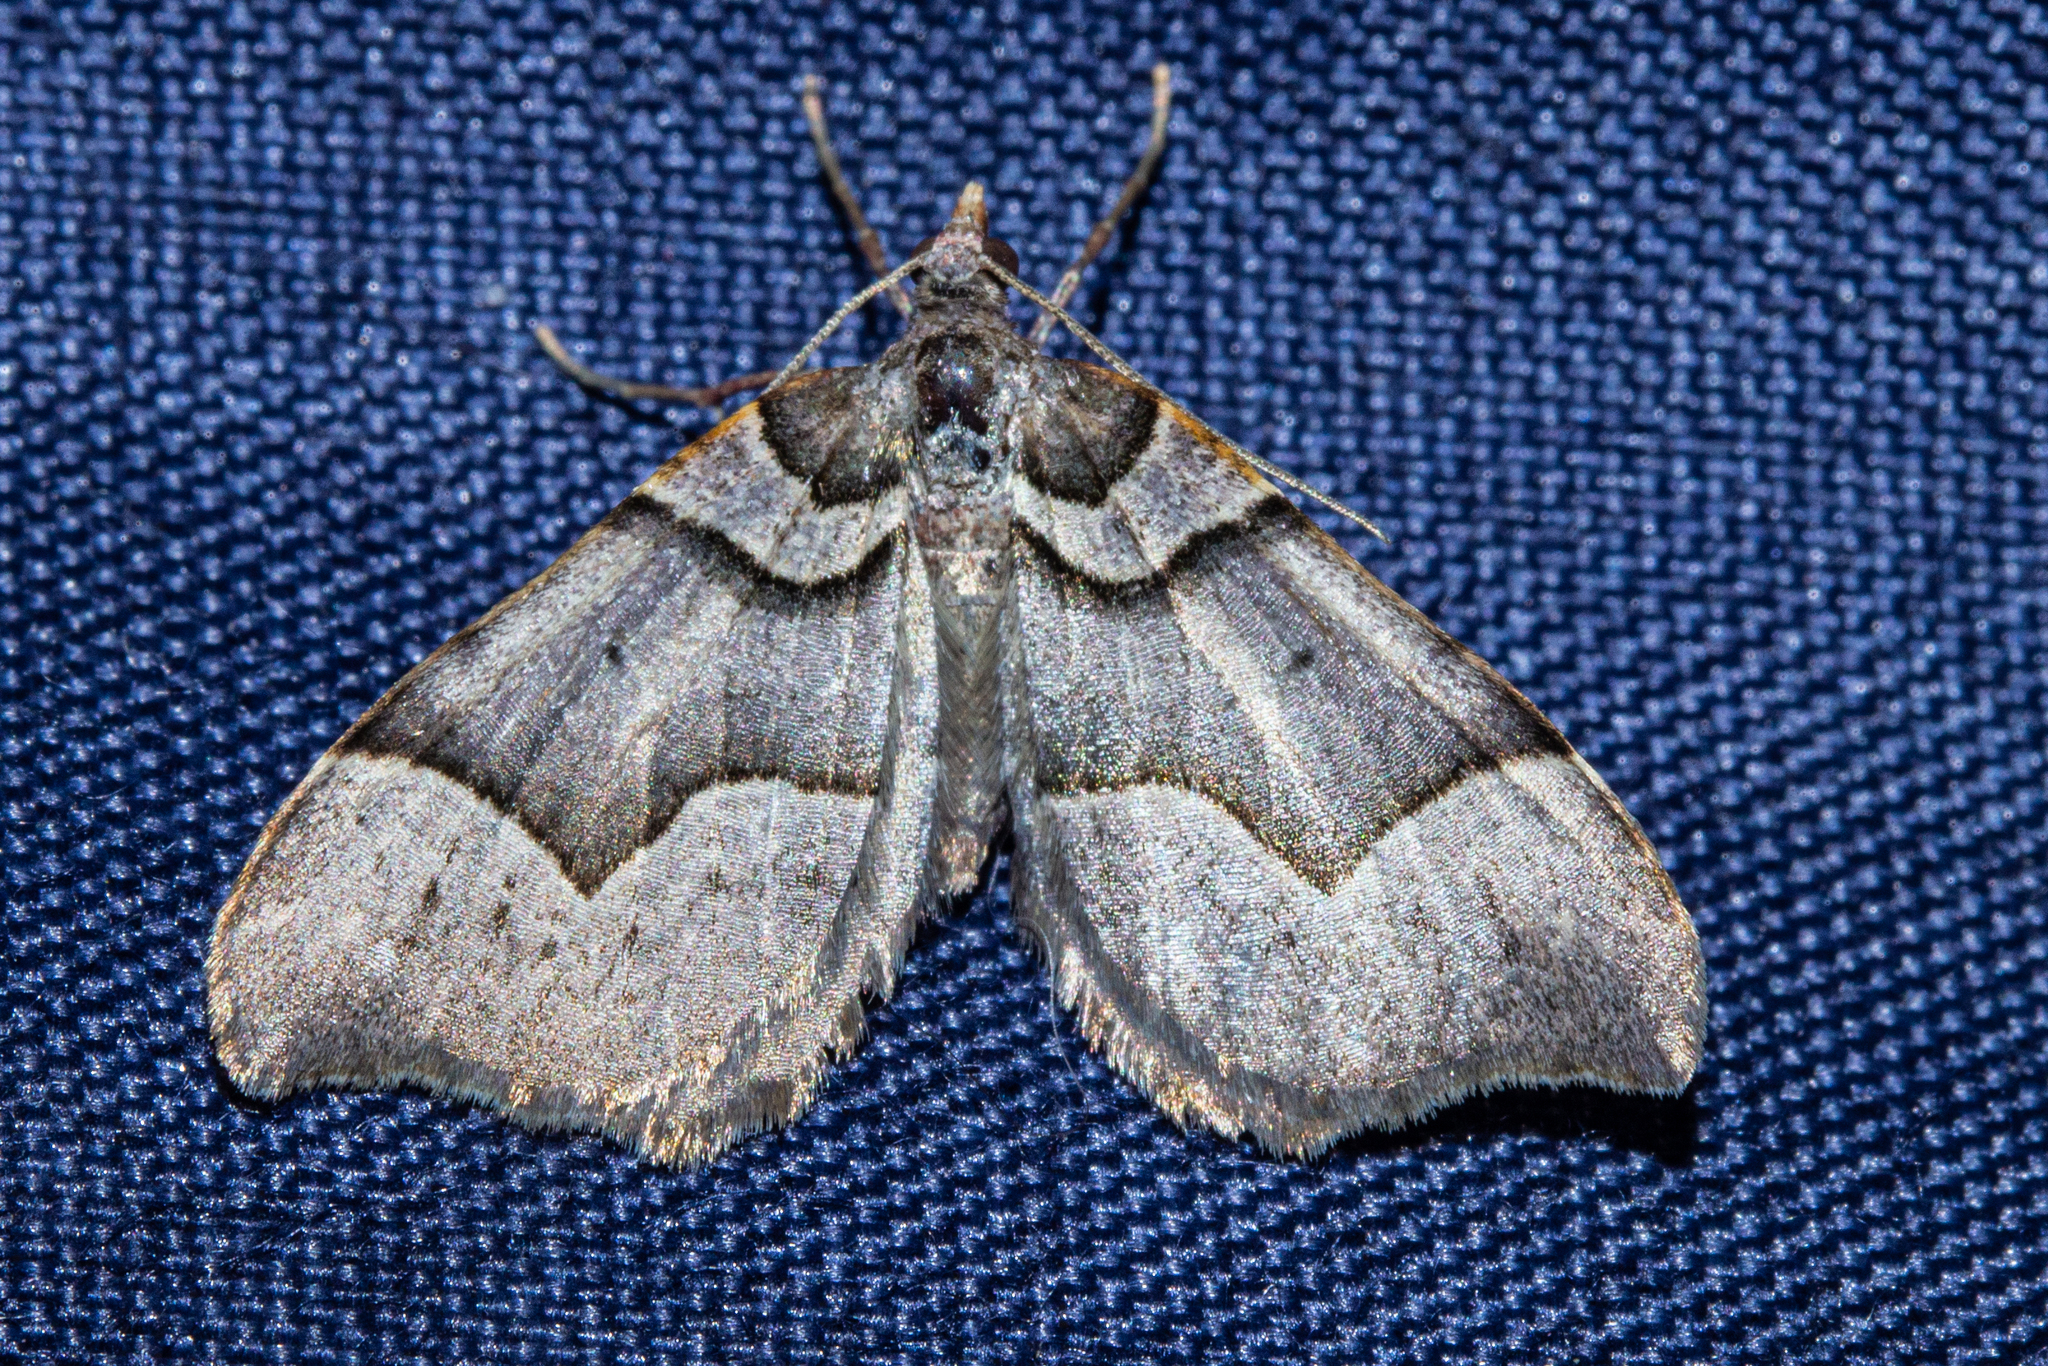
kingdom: Animalia
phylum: Arthropoda
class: Insecta
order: Lepidoptera
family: Geometridae
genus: Helastia
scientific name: Helastia triphragma
